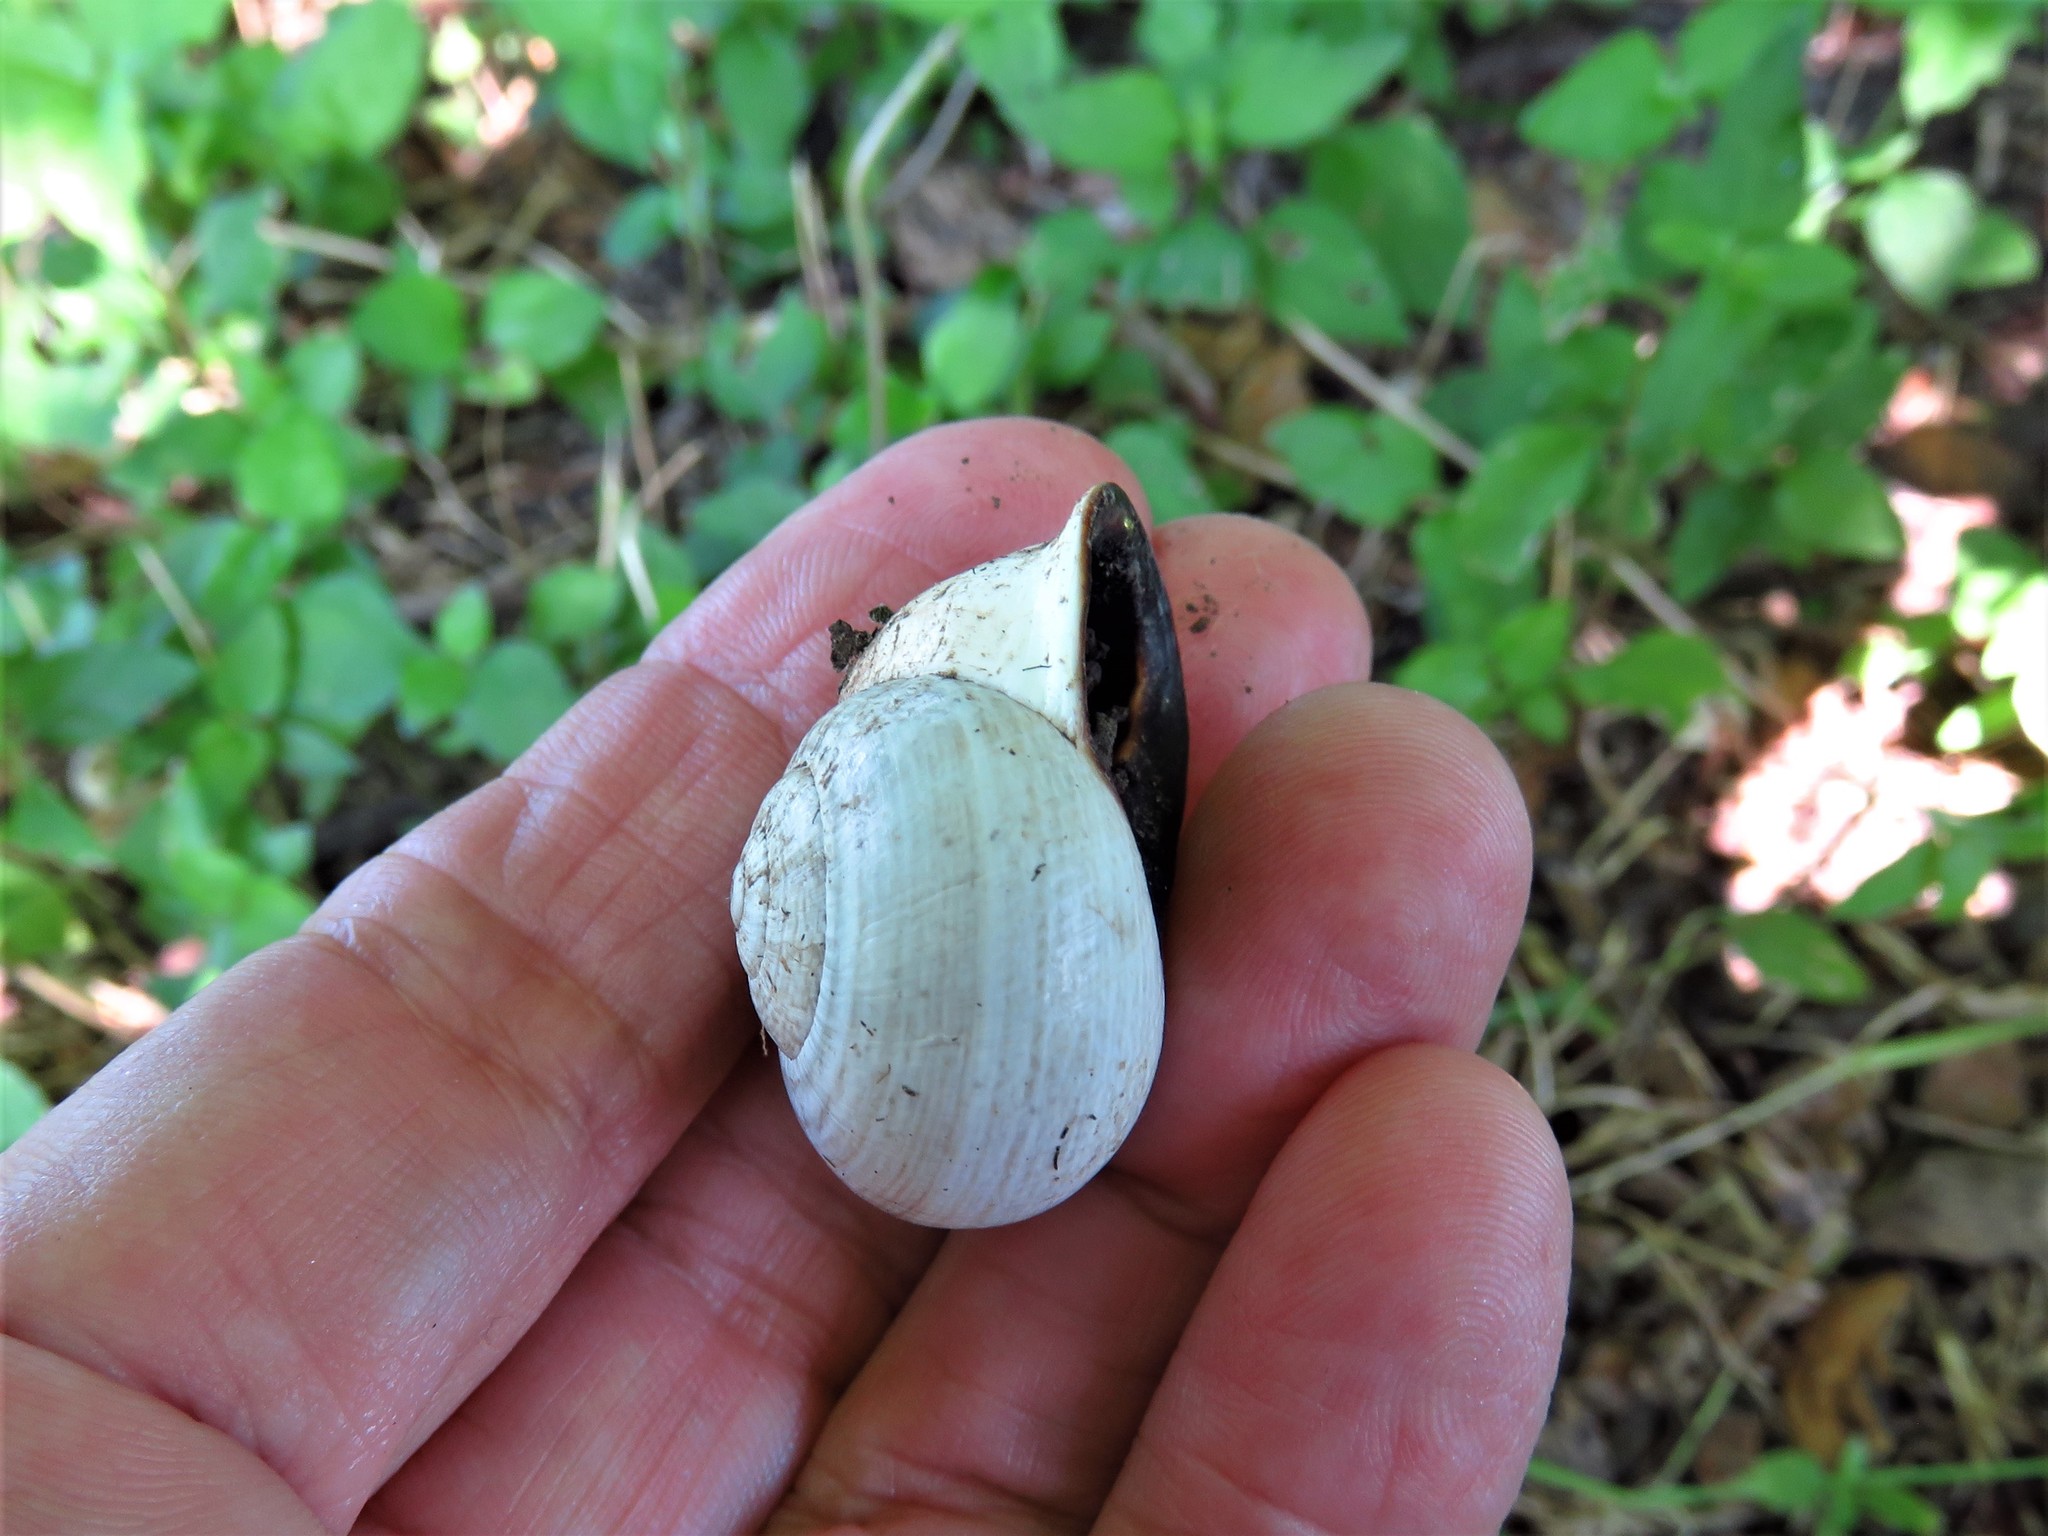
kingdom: Animalia
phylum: Mollusca
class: Gastropoda
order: Stylommatophora
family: Helicidae
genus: Otala
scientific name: Otala lactea
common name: Milk snail
